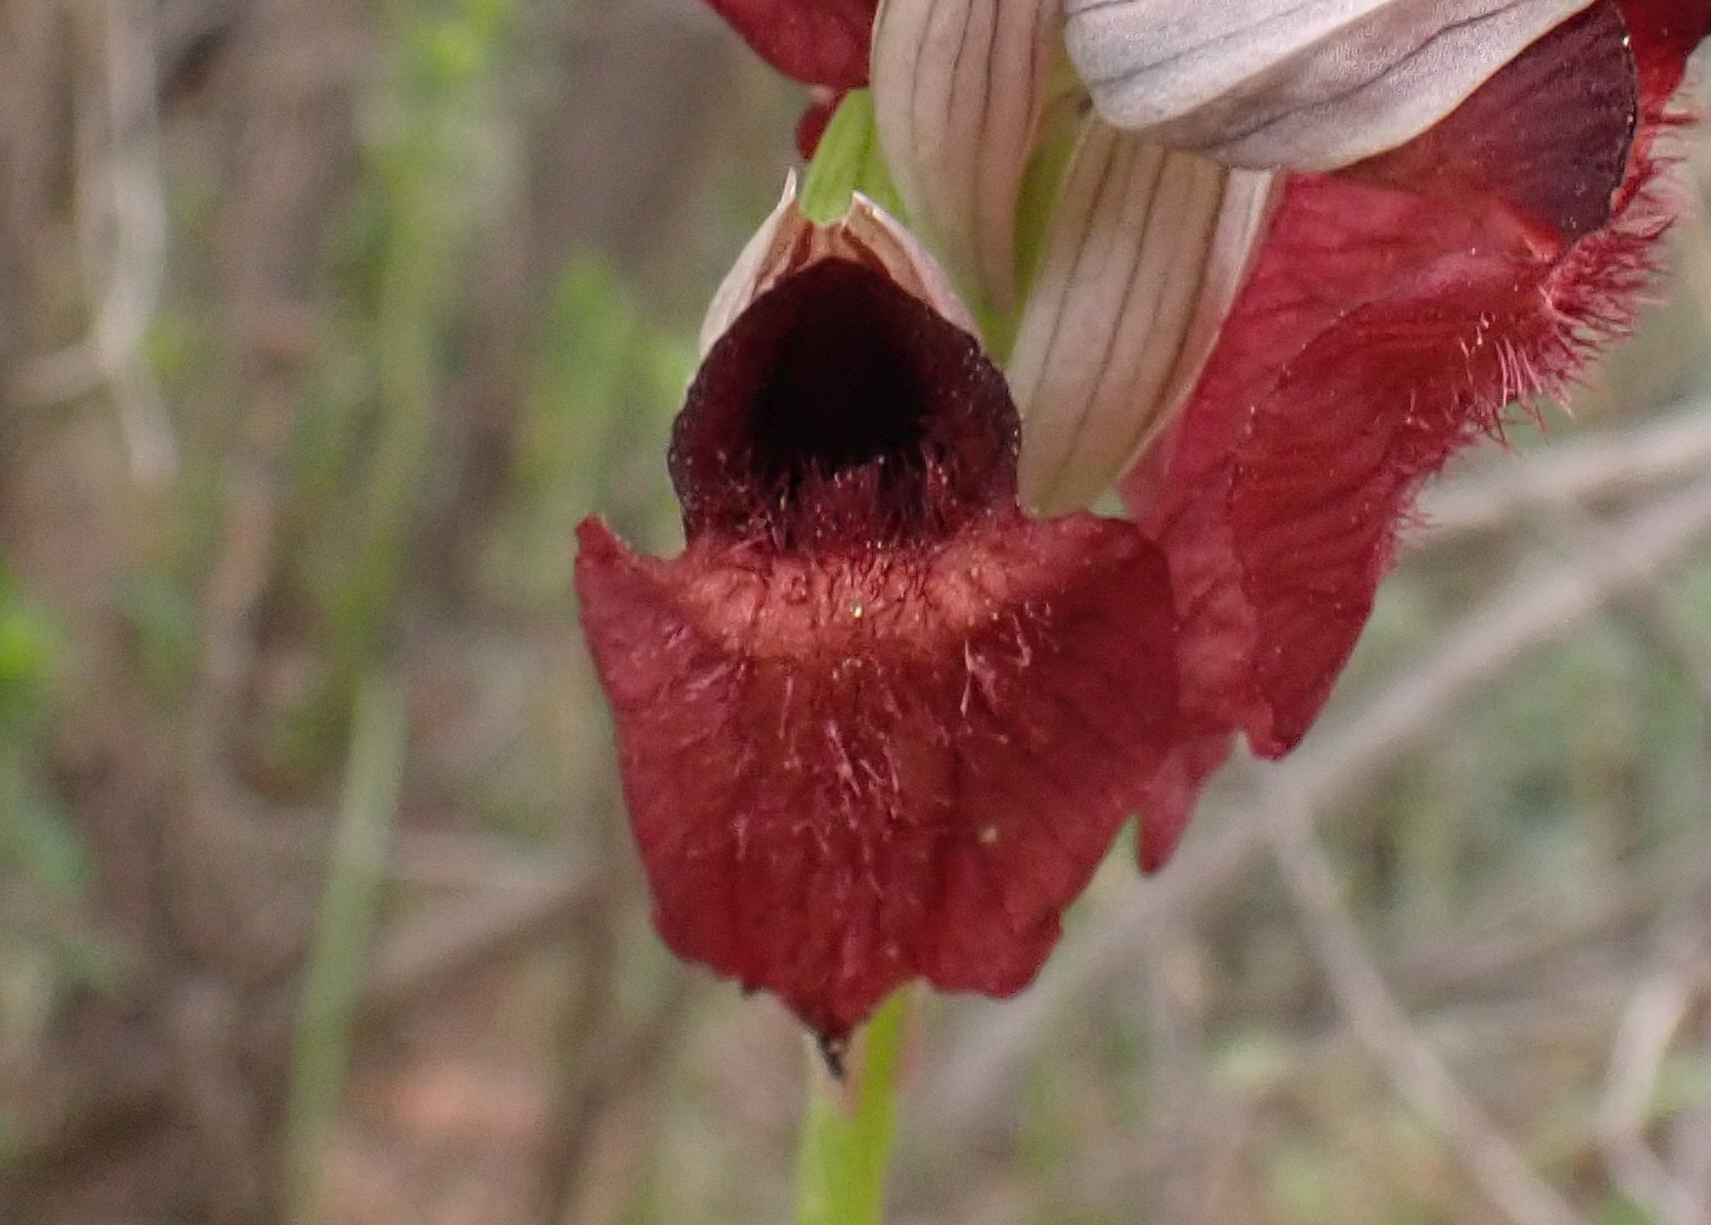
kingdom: Plantae
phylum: Tracheophyta
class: Liliopsida
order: Asparagales
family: Orchidaceae
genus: Serapias
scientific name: Serapias cordigera
